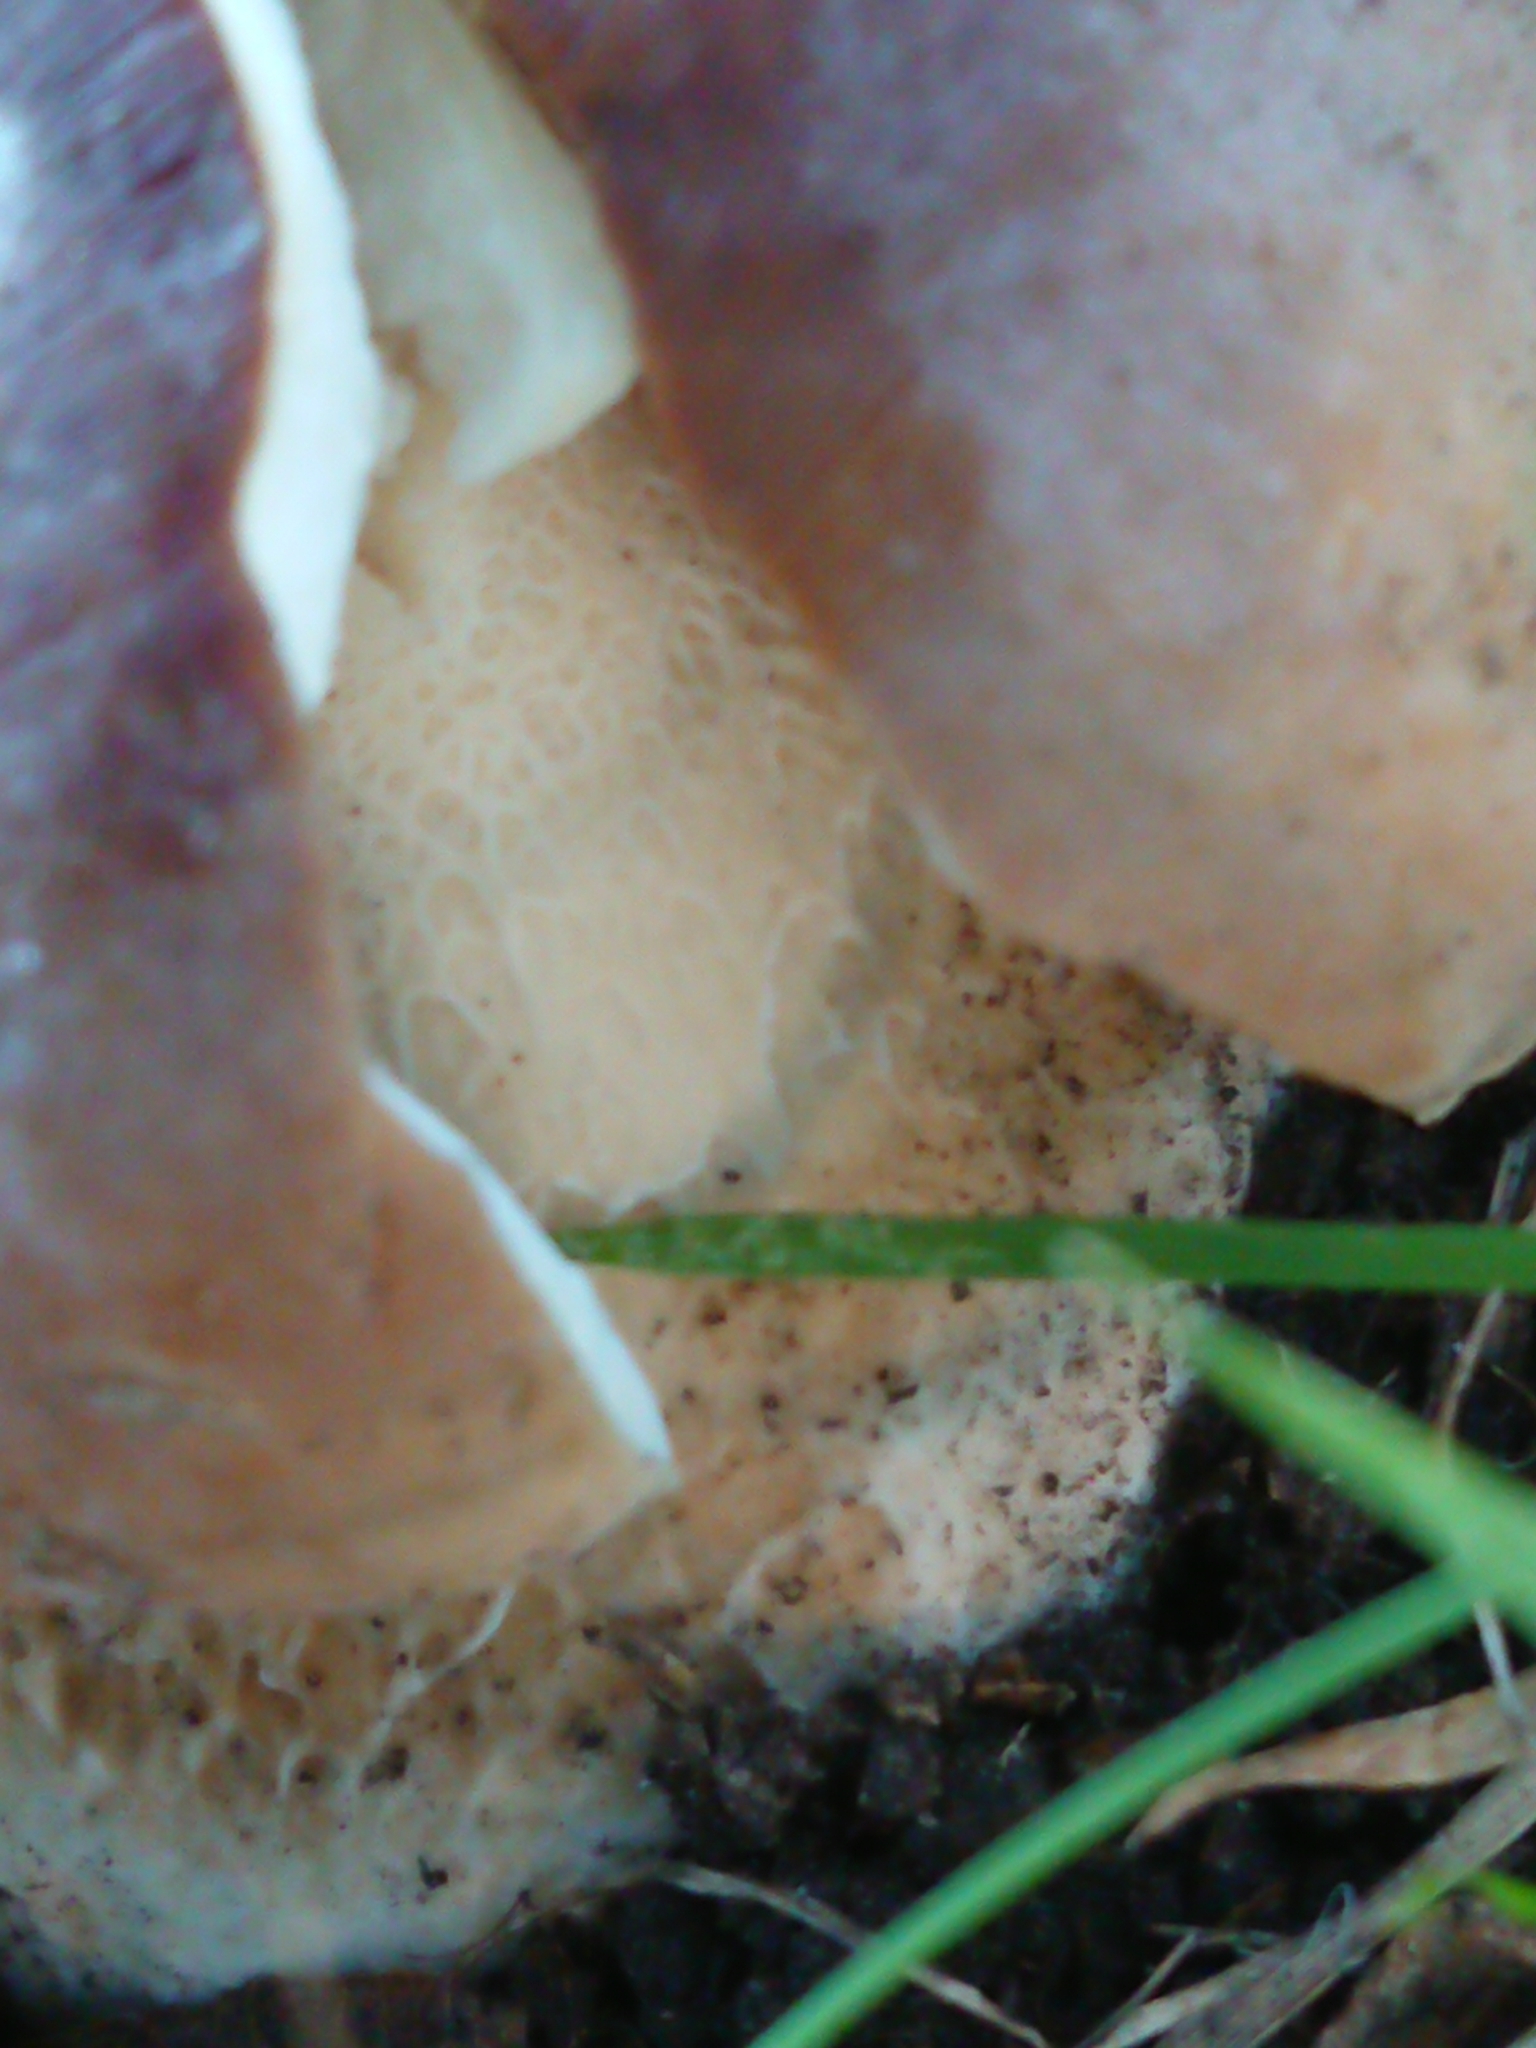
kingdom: Fungi
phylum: Basidiomycota
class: Agaricomycetes
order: Boletales
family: Boletaceae
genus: Boletus
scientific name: Boletus edulis
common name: Cep
